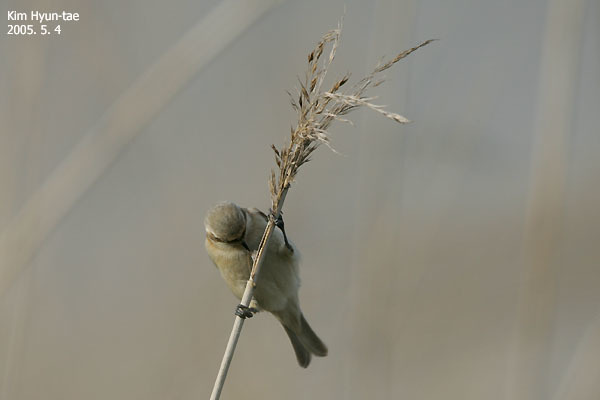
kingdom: Animalia
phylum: Chordata
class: Aves
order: Passeriformes
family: Remizidae
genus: Remiz
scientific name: Remiz consobrinus
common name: Chinese penduline tit
